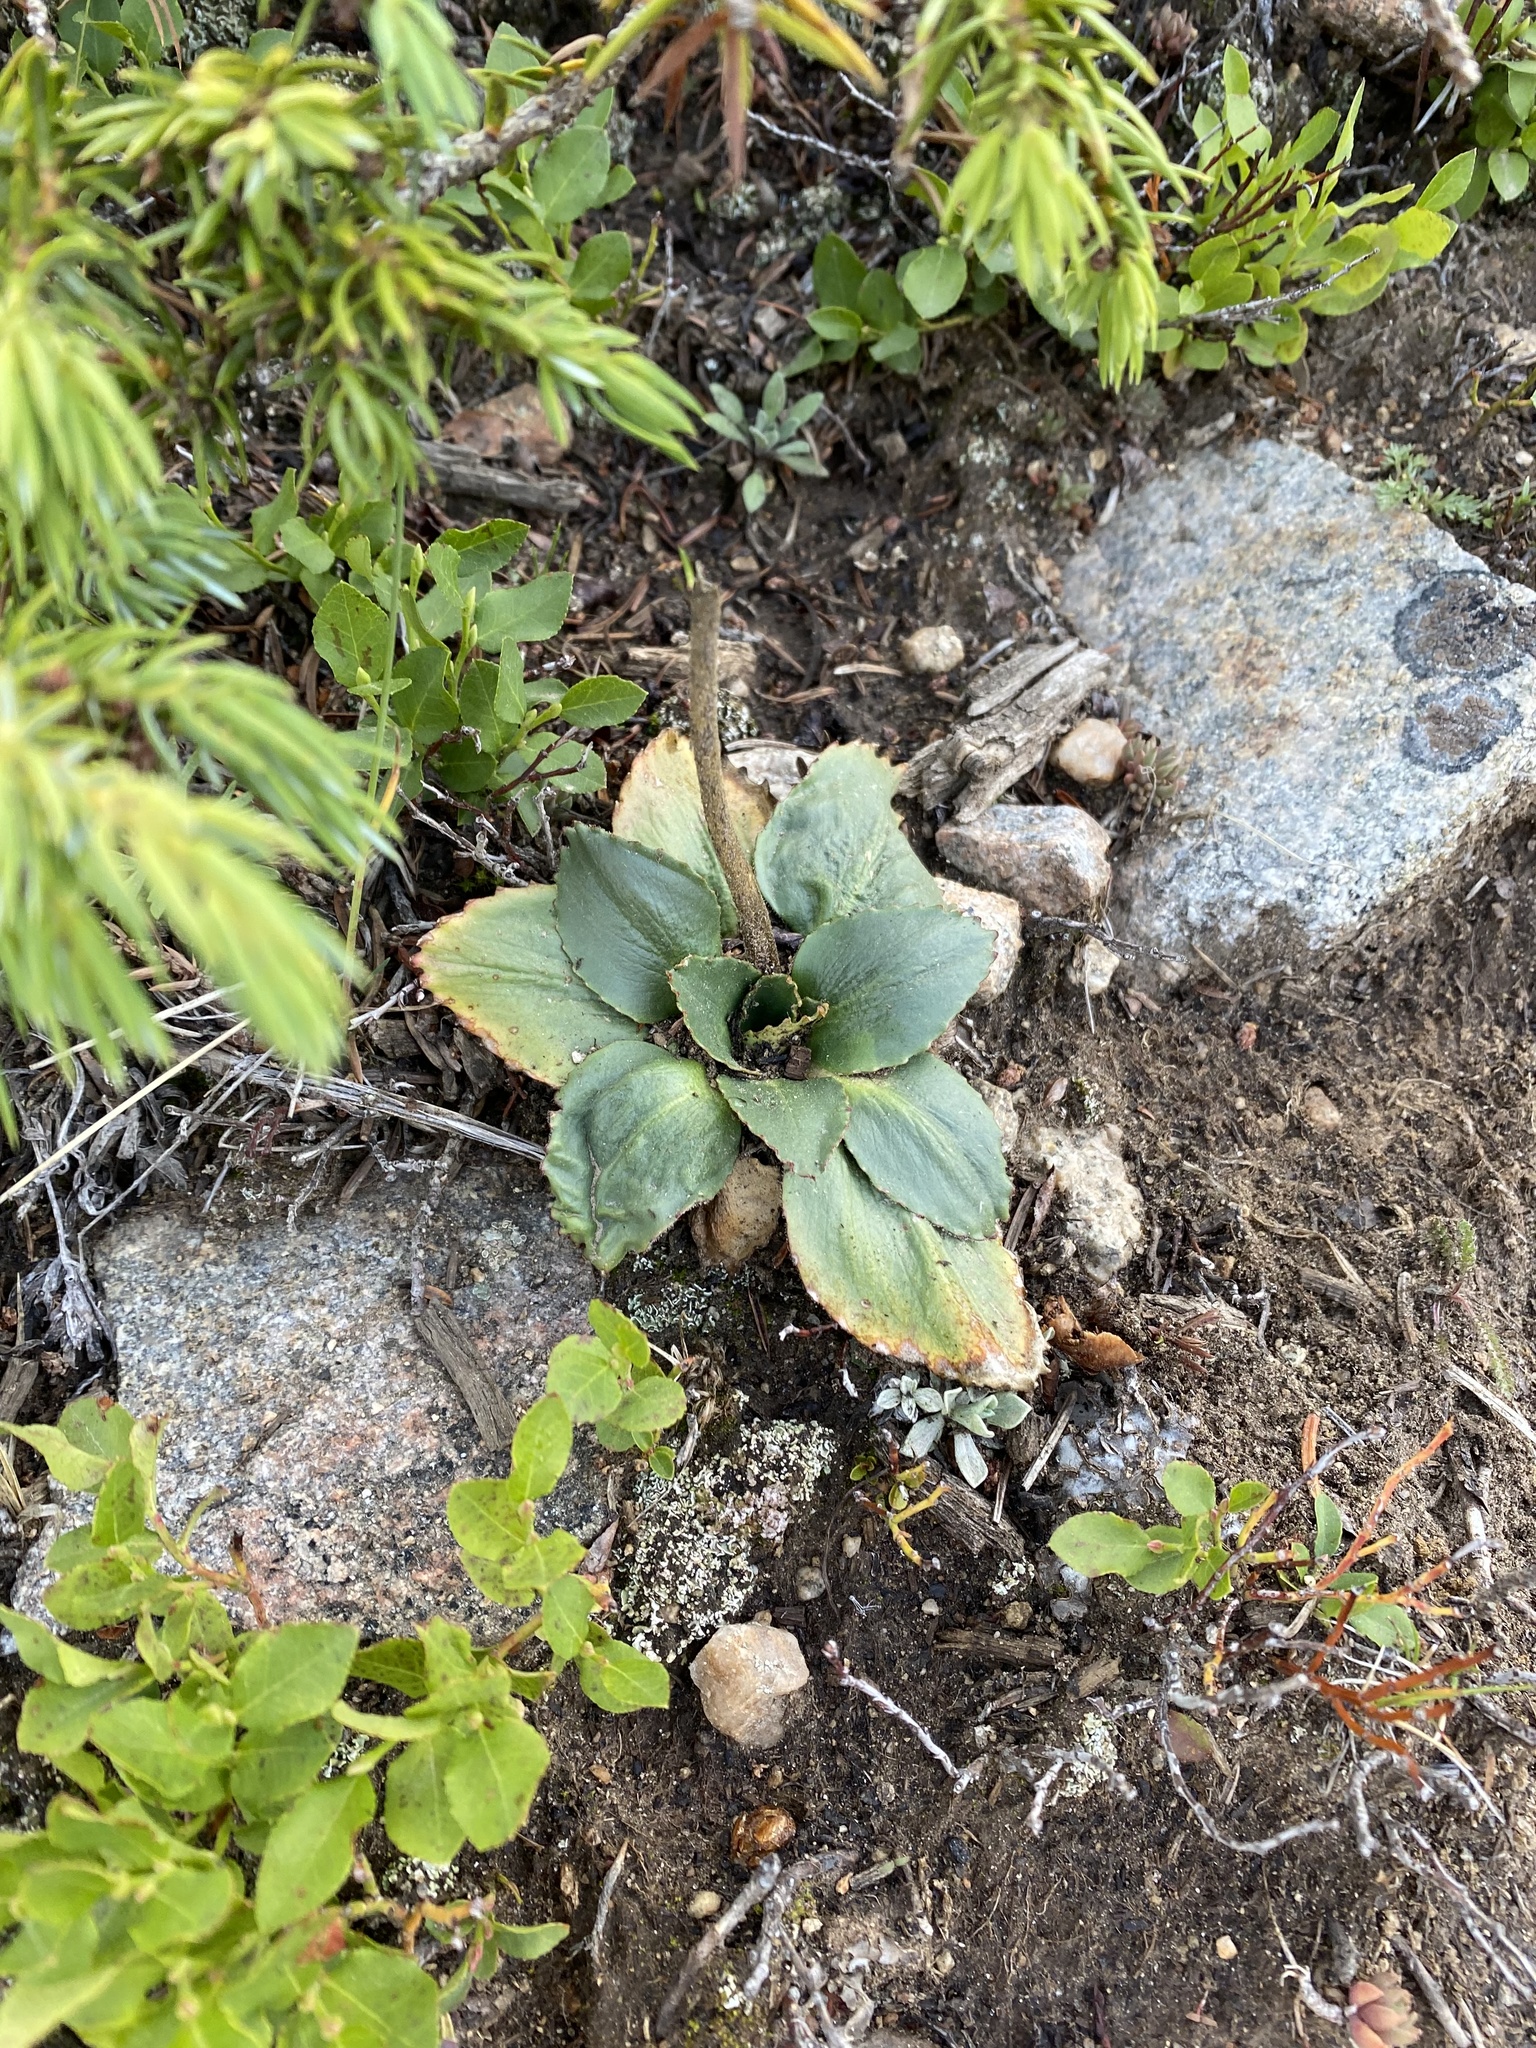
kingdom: Plantae
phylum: Tracheophyta
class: Magnoliopsida
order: Saxifragales
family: Saxifragaceae
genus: Micranthes
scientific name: Micranthes rhomboidea
